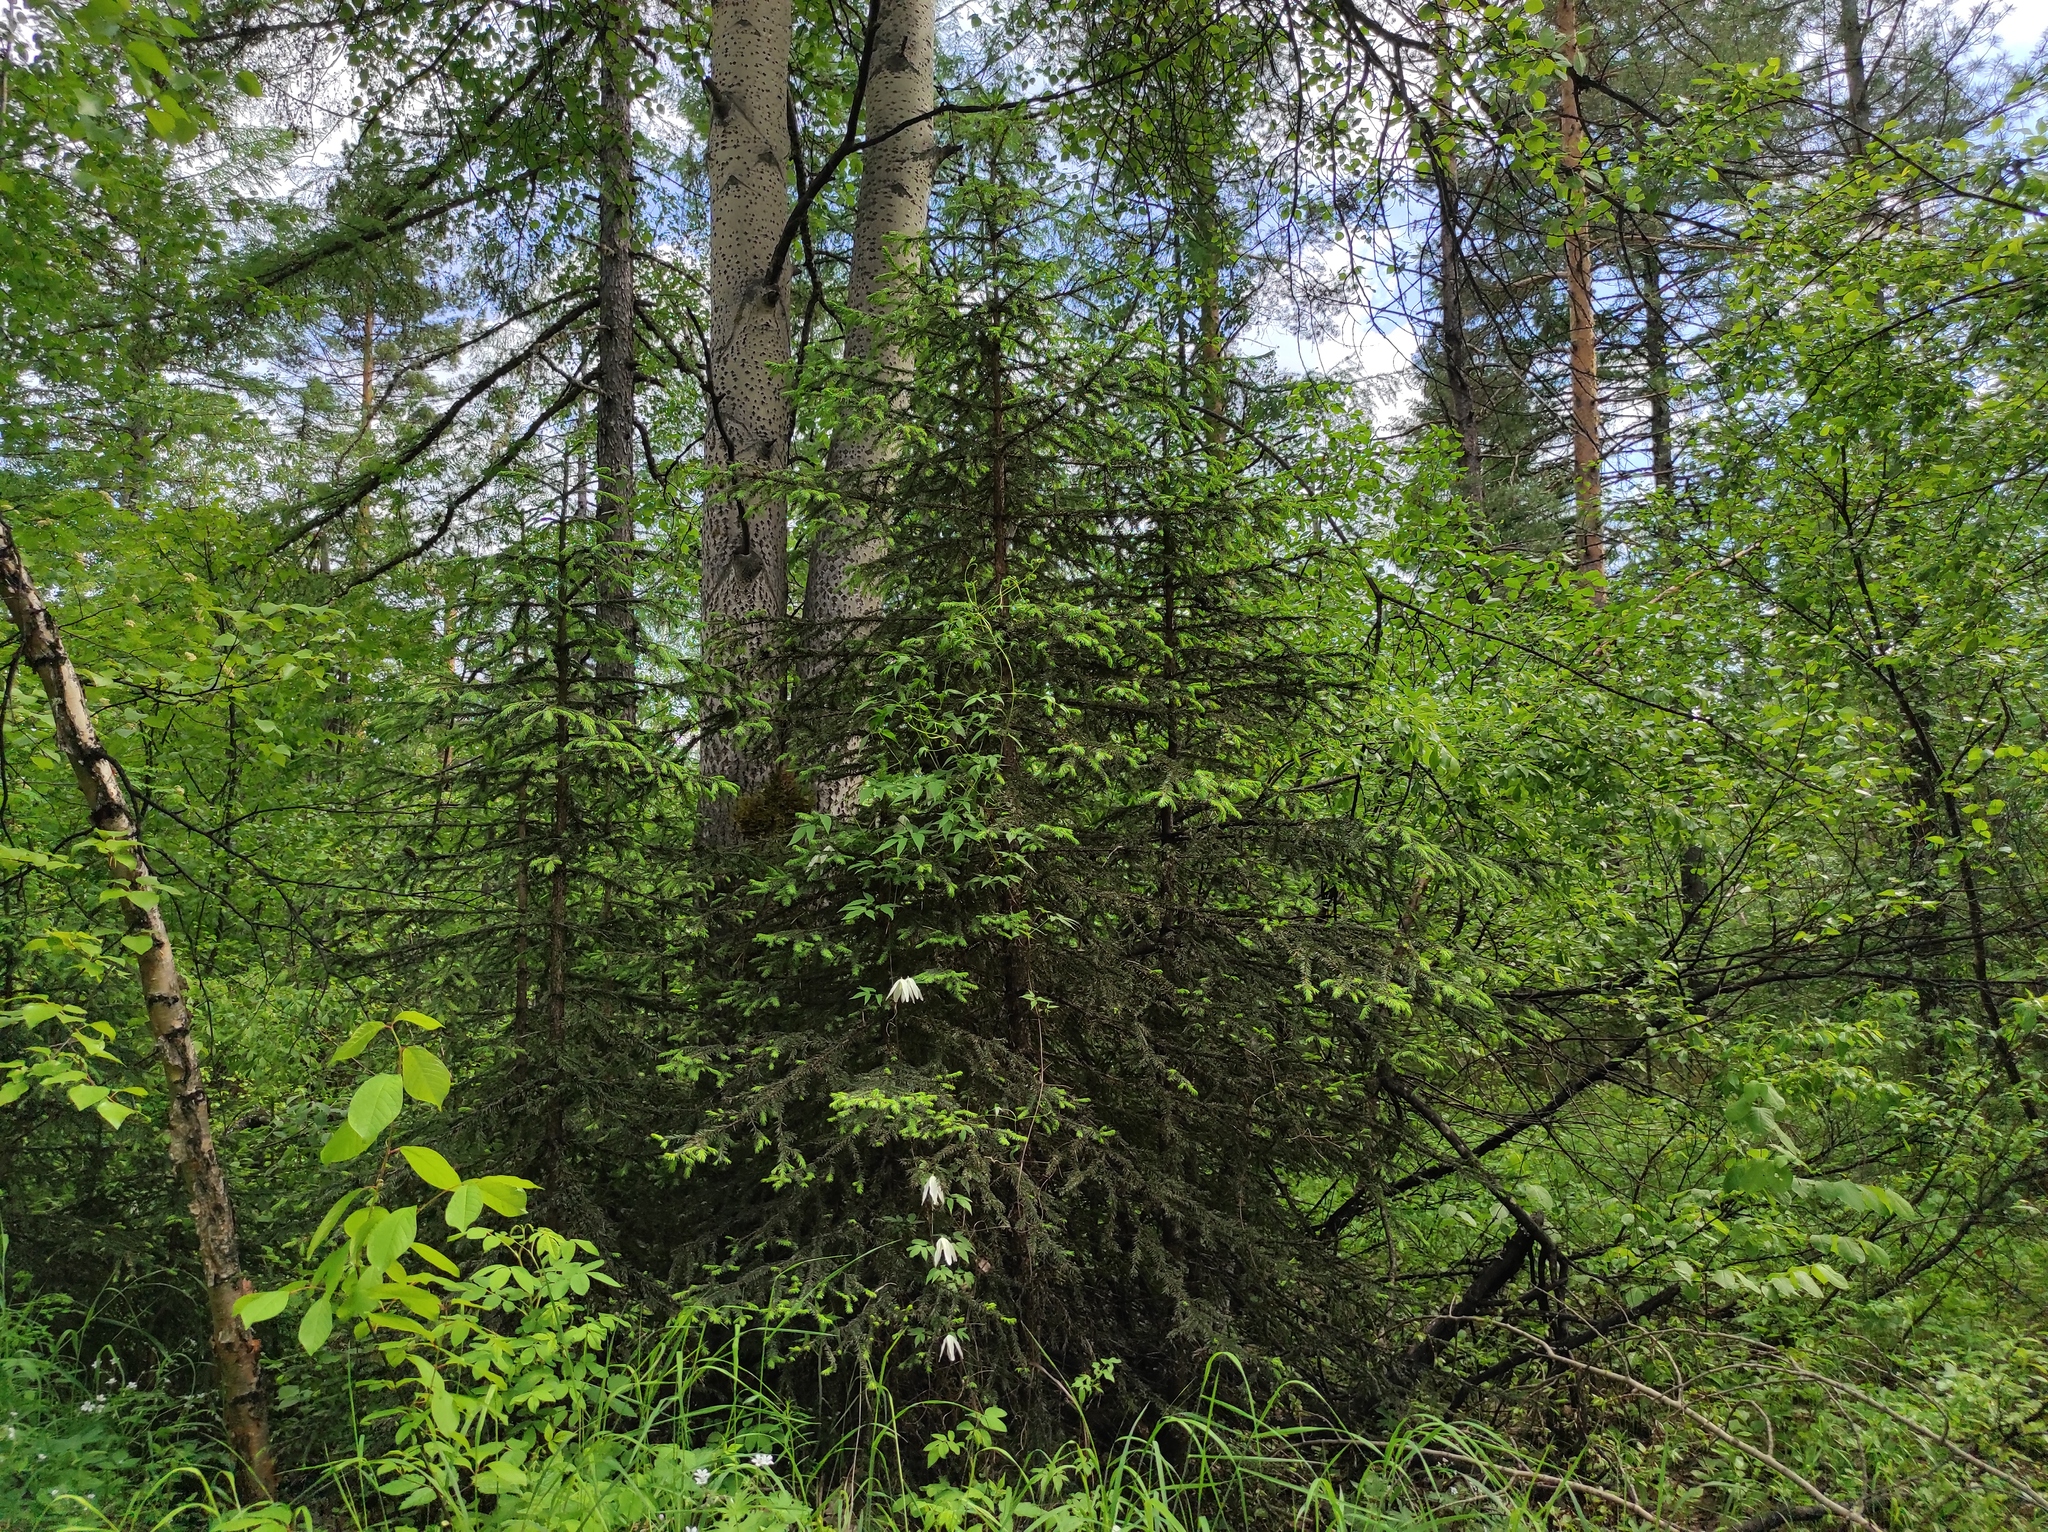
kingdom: Plantae
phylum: Tracheophyta
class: Pinopsida
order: Pinales
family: Pinaceae
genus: Pinus
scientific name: Pinus sylvestris
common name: Scots pine
